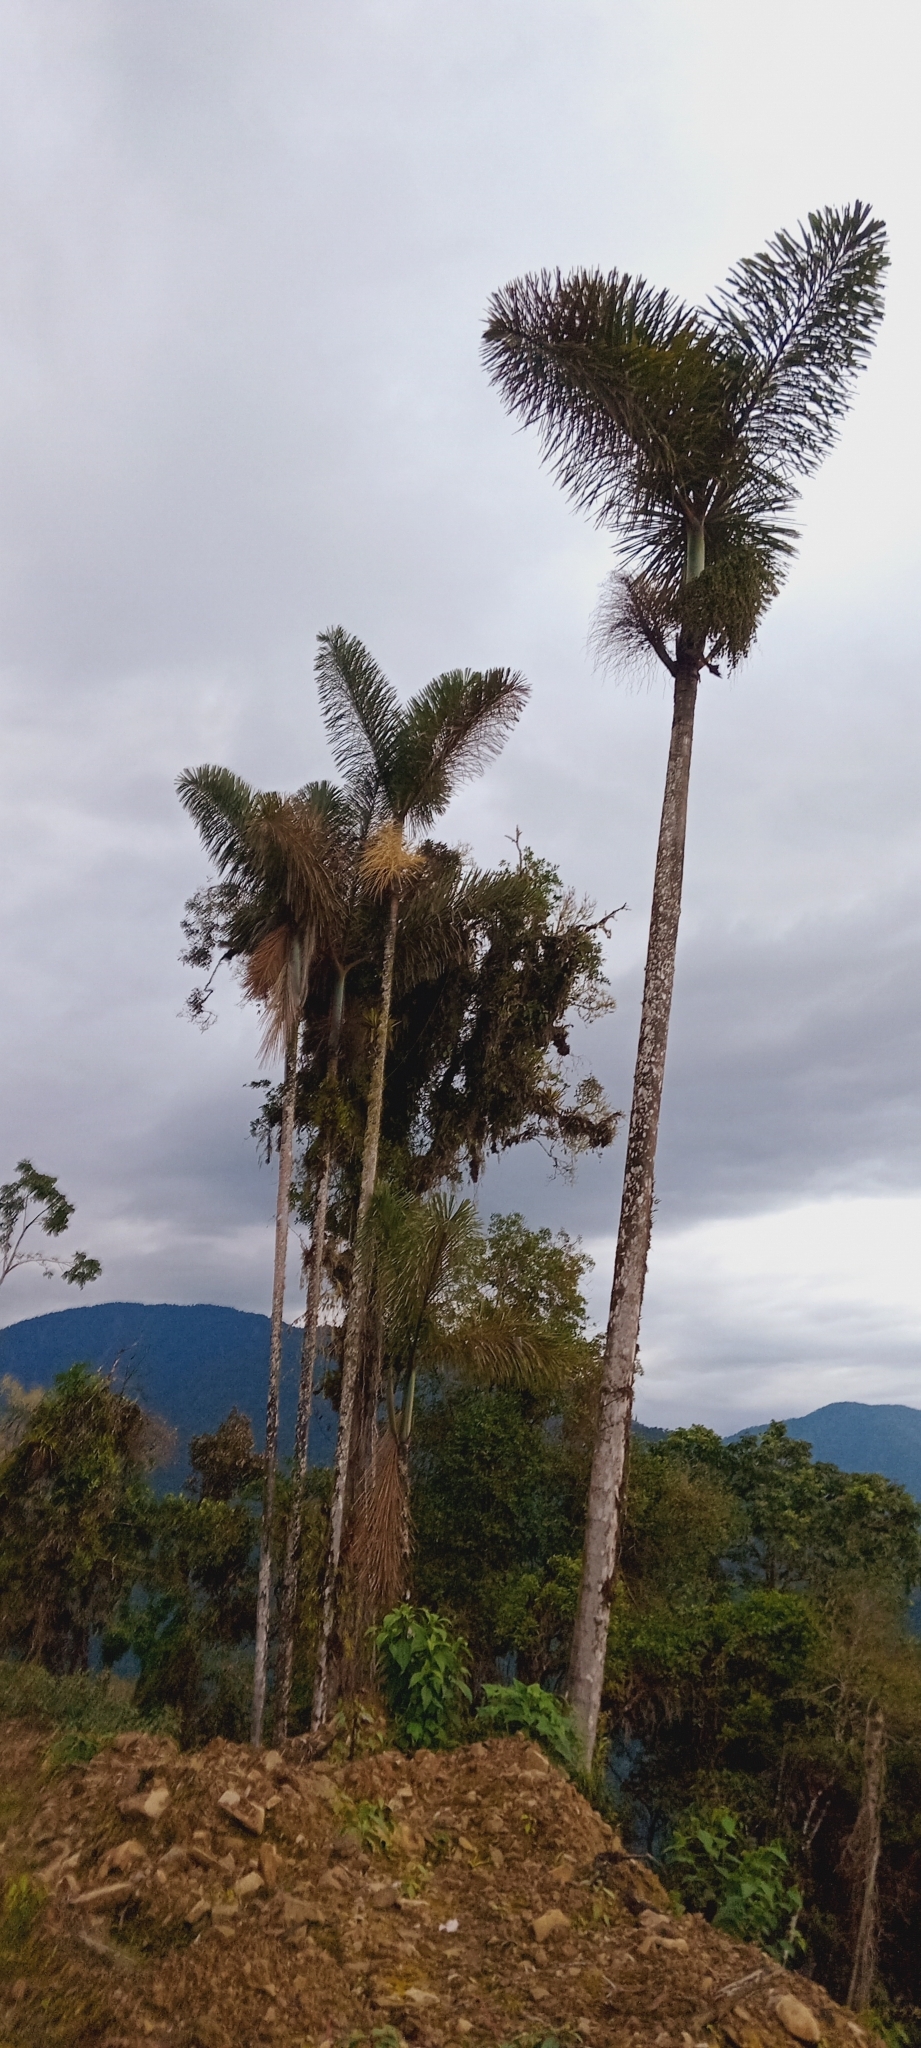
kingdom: Plantae
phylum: Tracheophyta
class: Liliopsida
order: Arecales
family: Arecaceae
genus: Dictyocaryum
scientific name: Dictyocaryum lamarckianum
